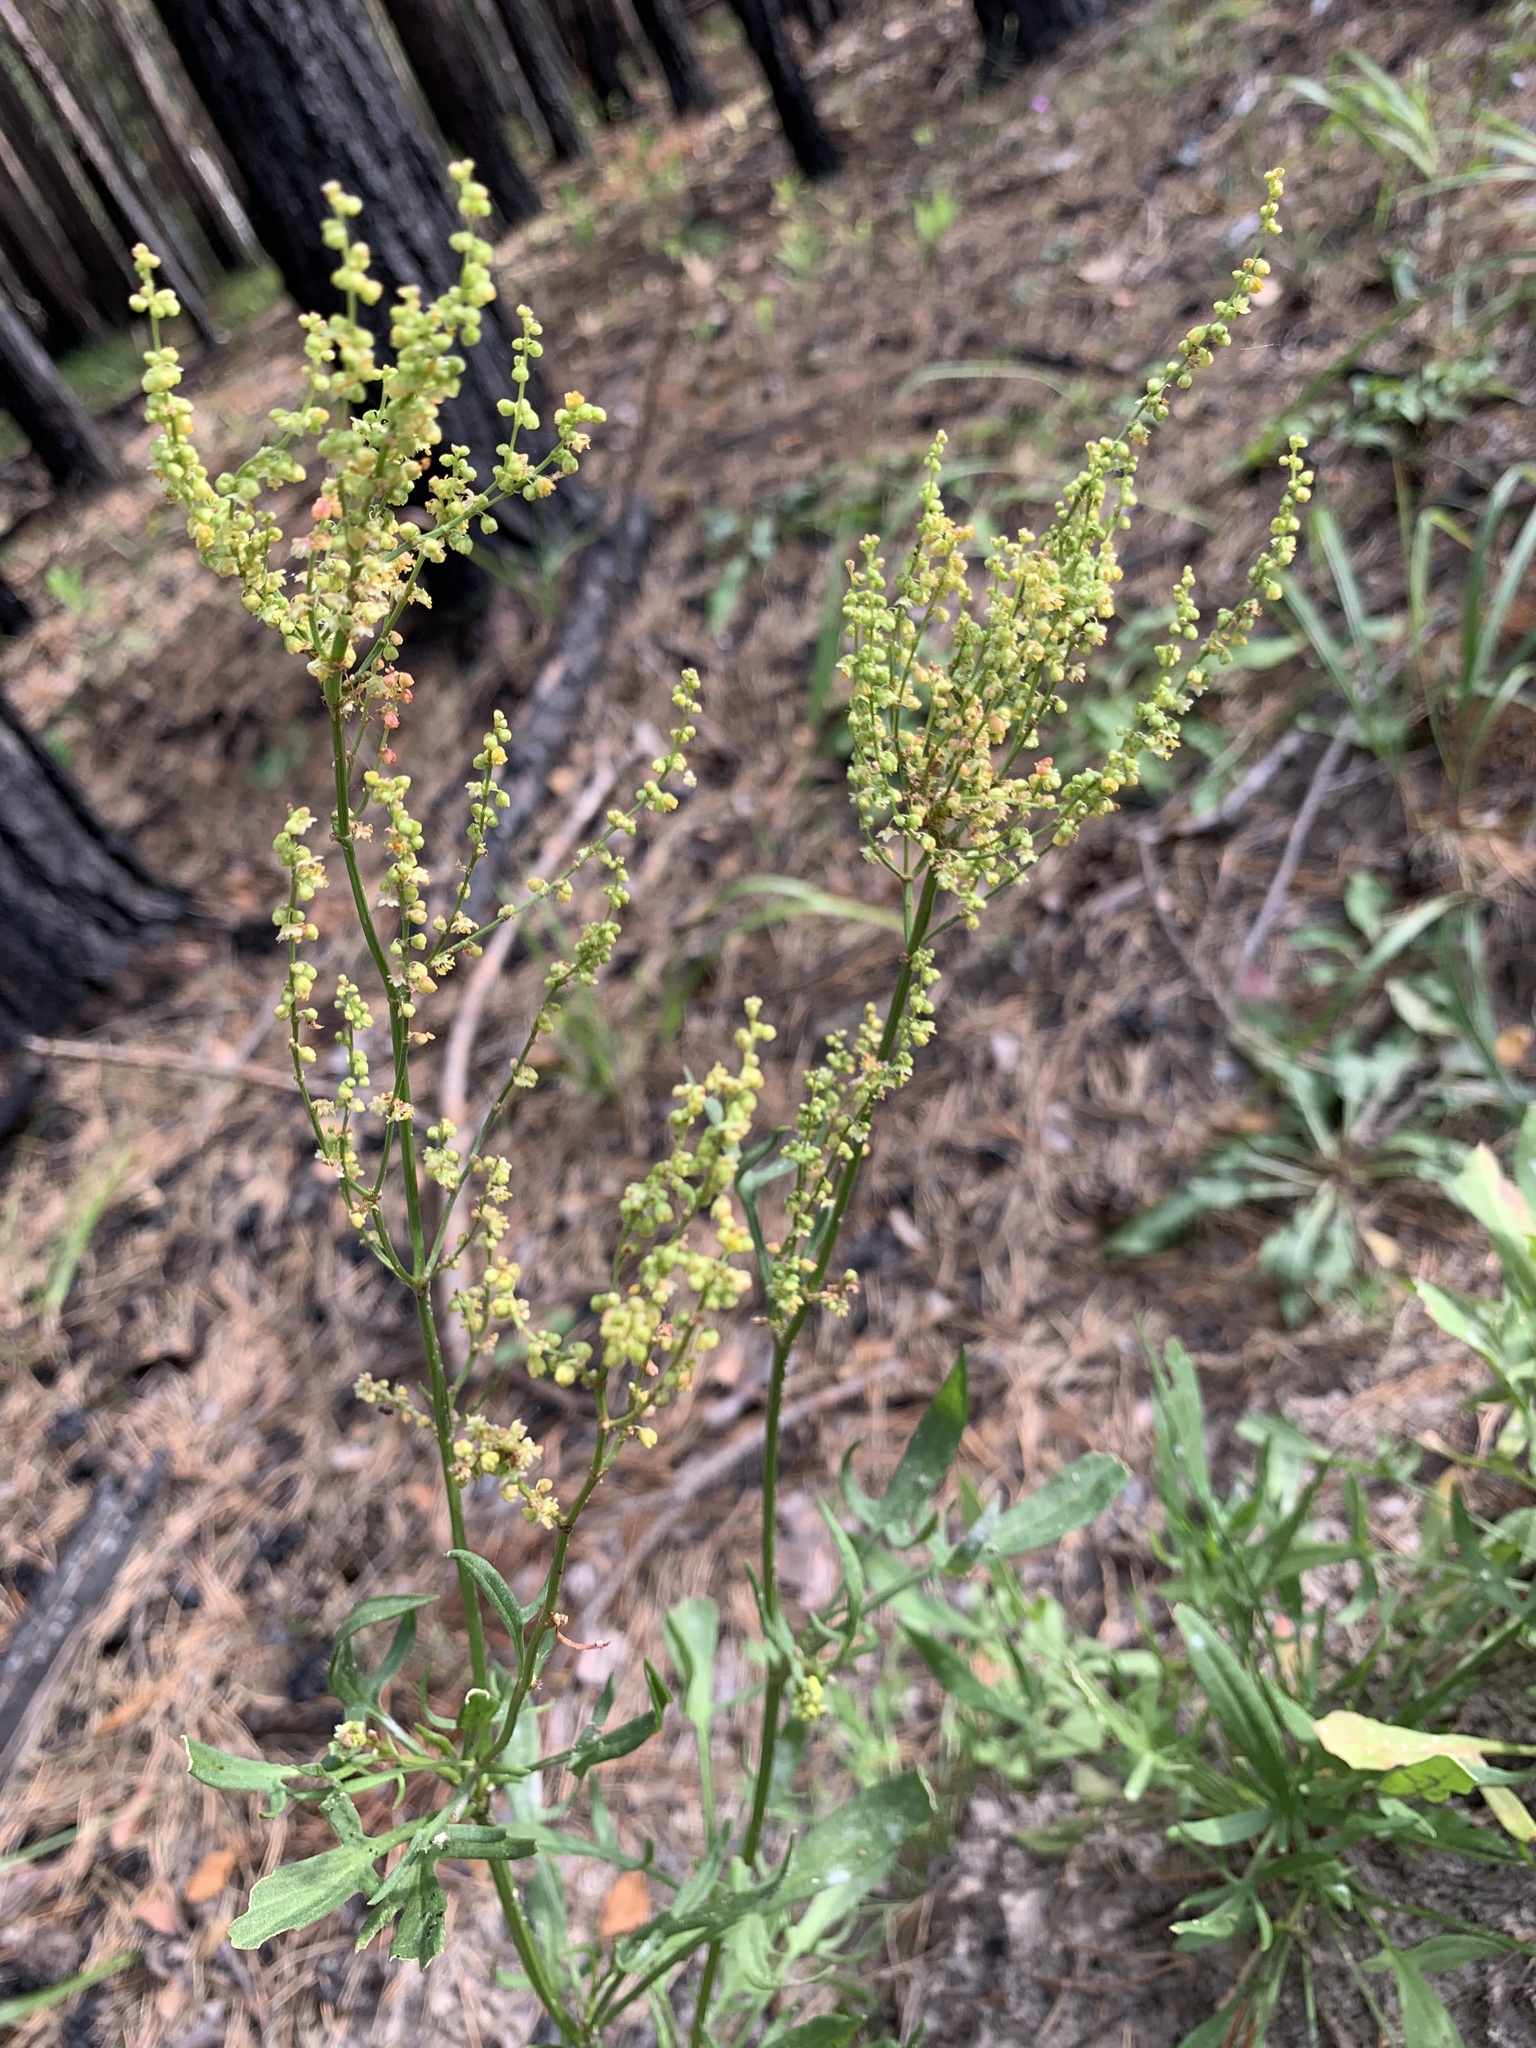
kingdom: Plantae
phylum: Tracheophyta
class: Magnoliopsida
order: Caryophyllales
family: Polygonaceae
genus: Rumex
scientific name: Rumex acetosella
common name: Common sheep sorrel
